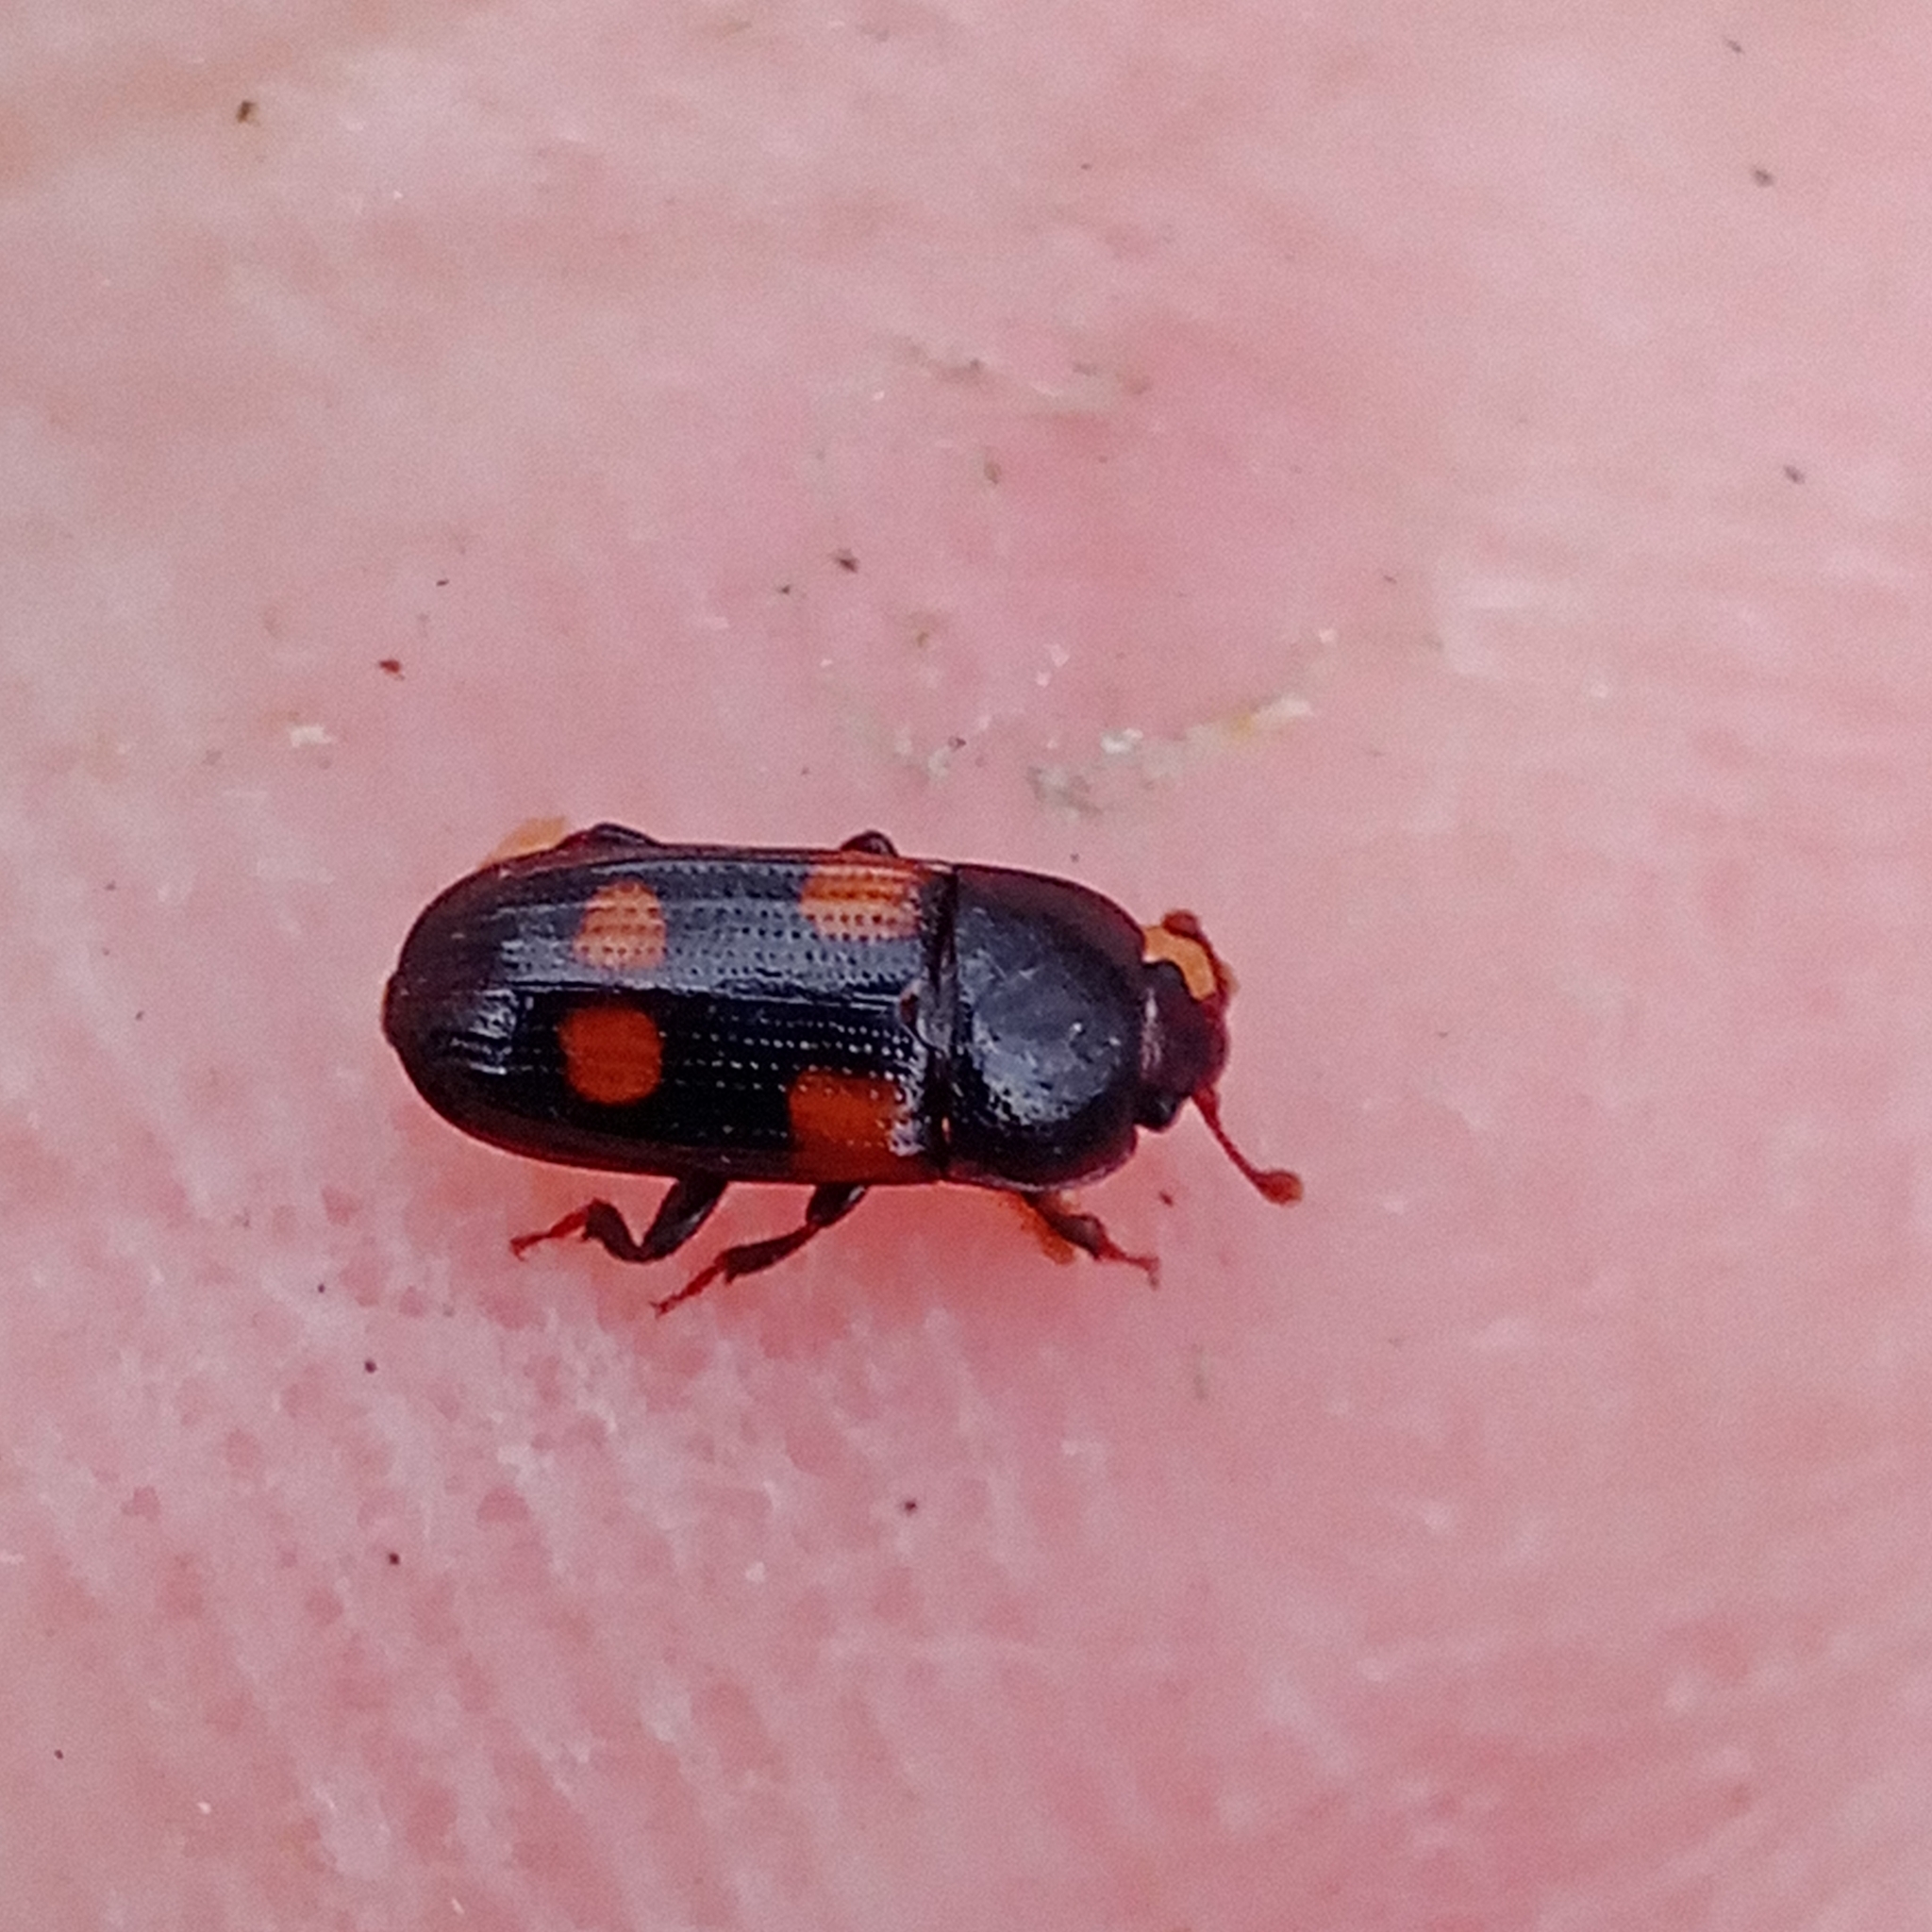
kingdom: Animalia
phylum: Arthropoda
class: Insecta
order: Coleoptera
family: Nitidulidae
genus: Ipidia
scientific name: Ipidia binotata
